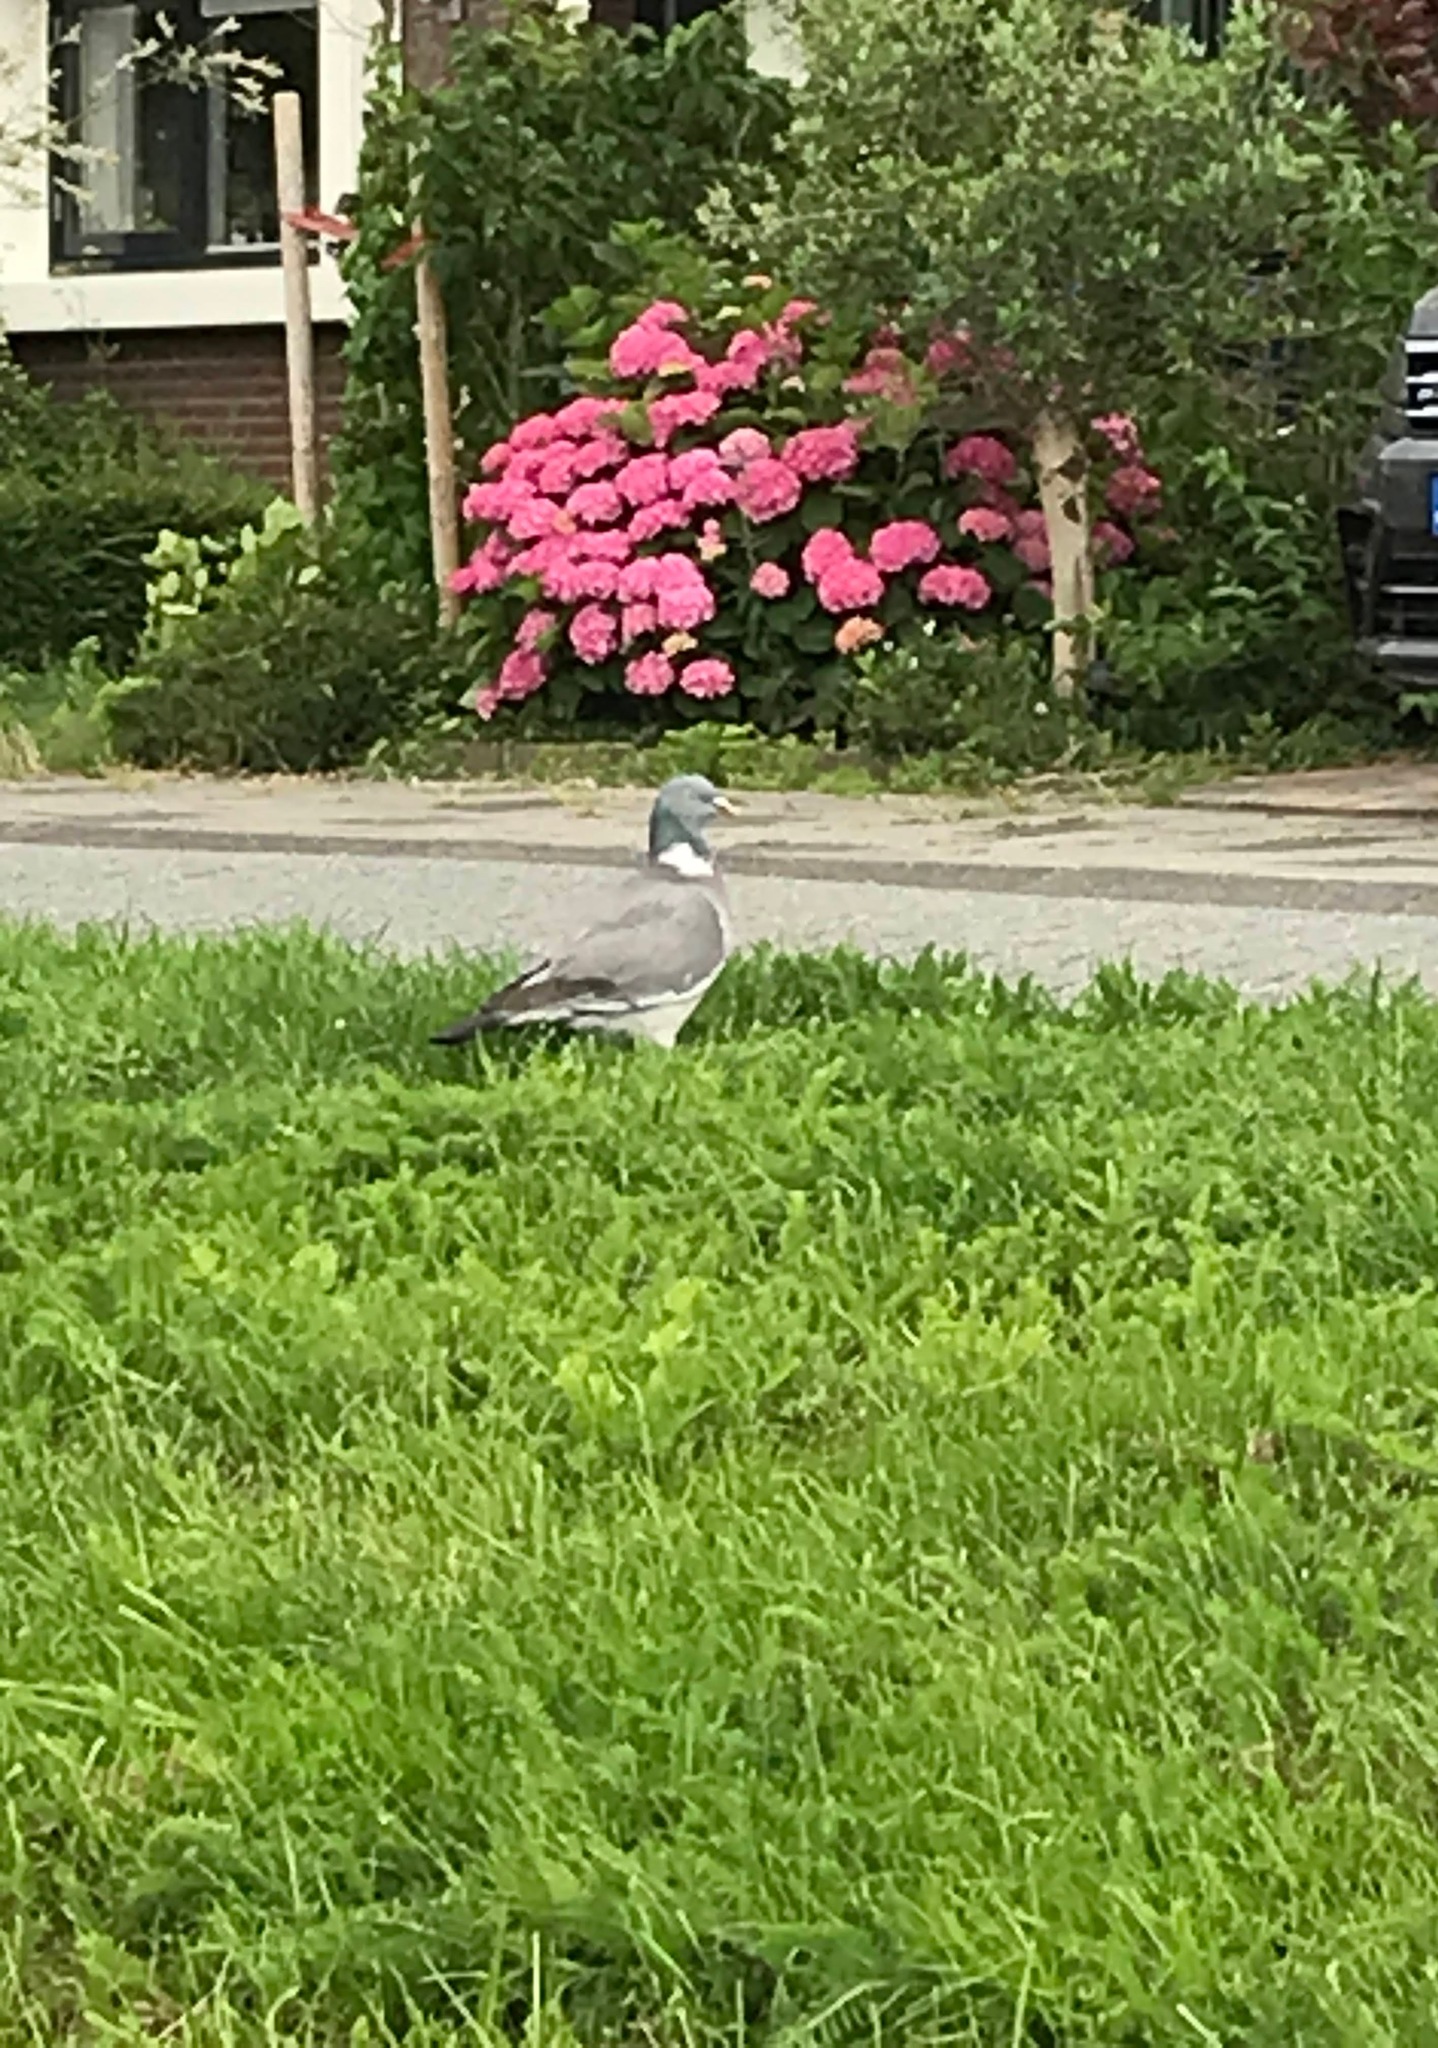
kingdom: Animalia
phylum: Chordata
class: Aves
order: Columbiformes
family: Columbidae
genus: Columba
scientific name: Columba palumbus
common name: Common wood pigeon
